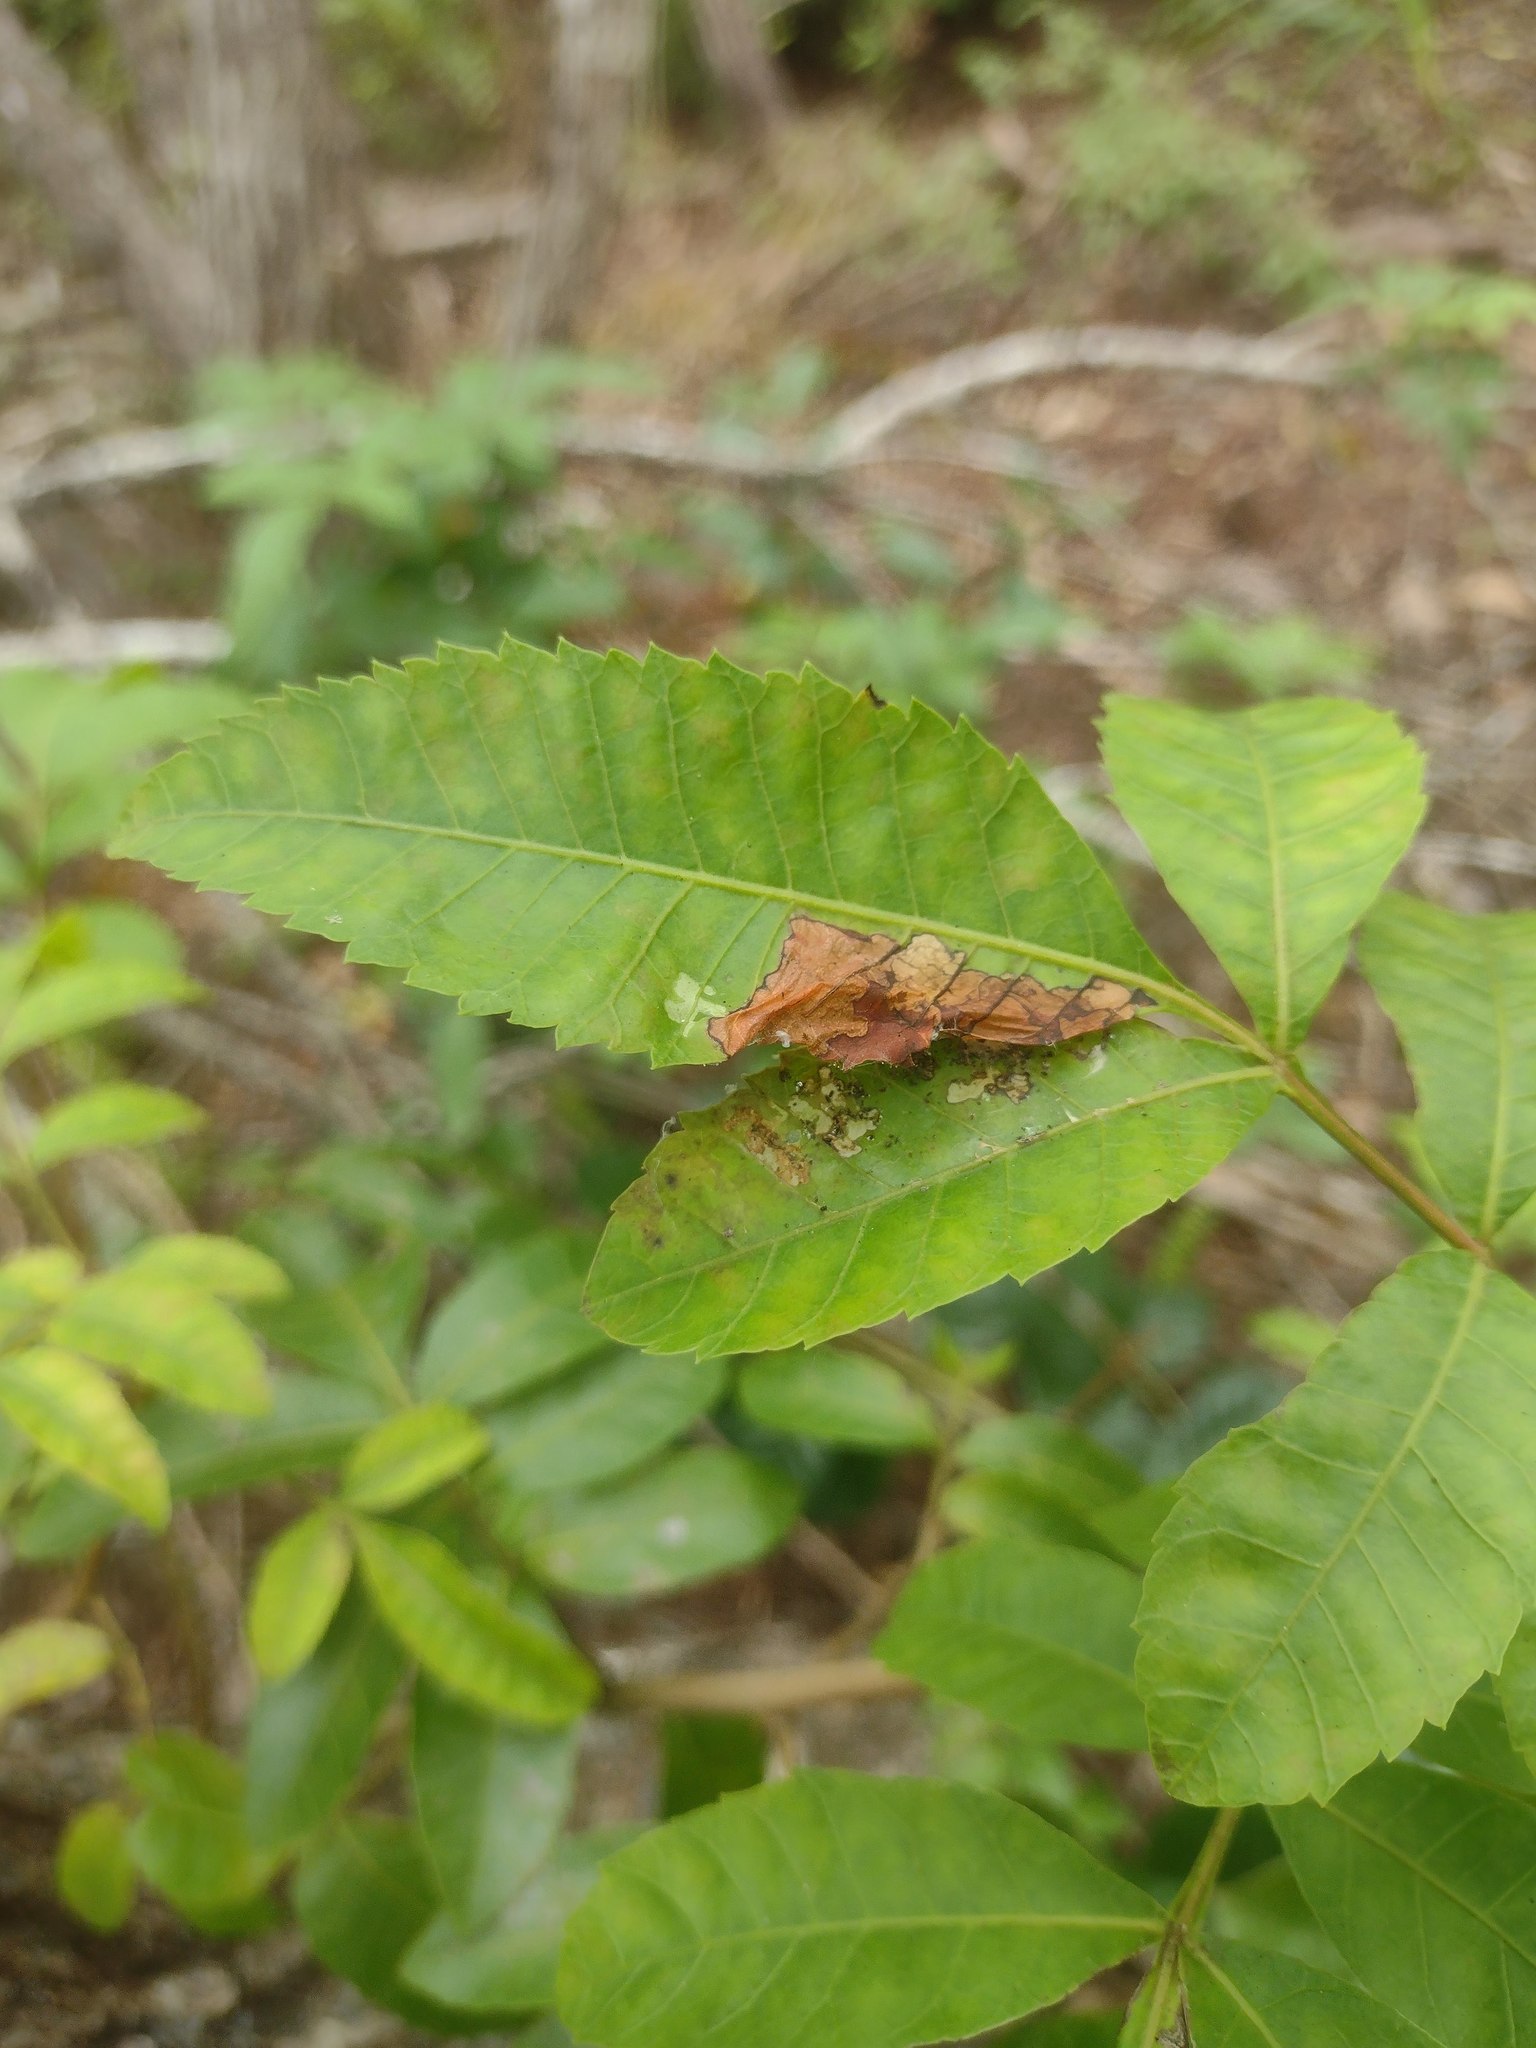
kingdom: Animalia
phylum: Arthropoda
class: Insecta
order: Lepidoptera
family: Tortricidae
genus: Episimus
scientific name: Episimus unguiculus
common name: Brazilian peppertree leaflet rolling moth
